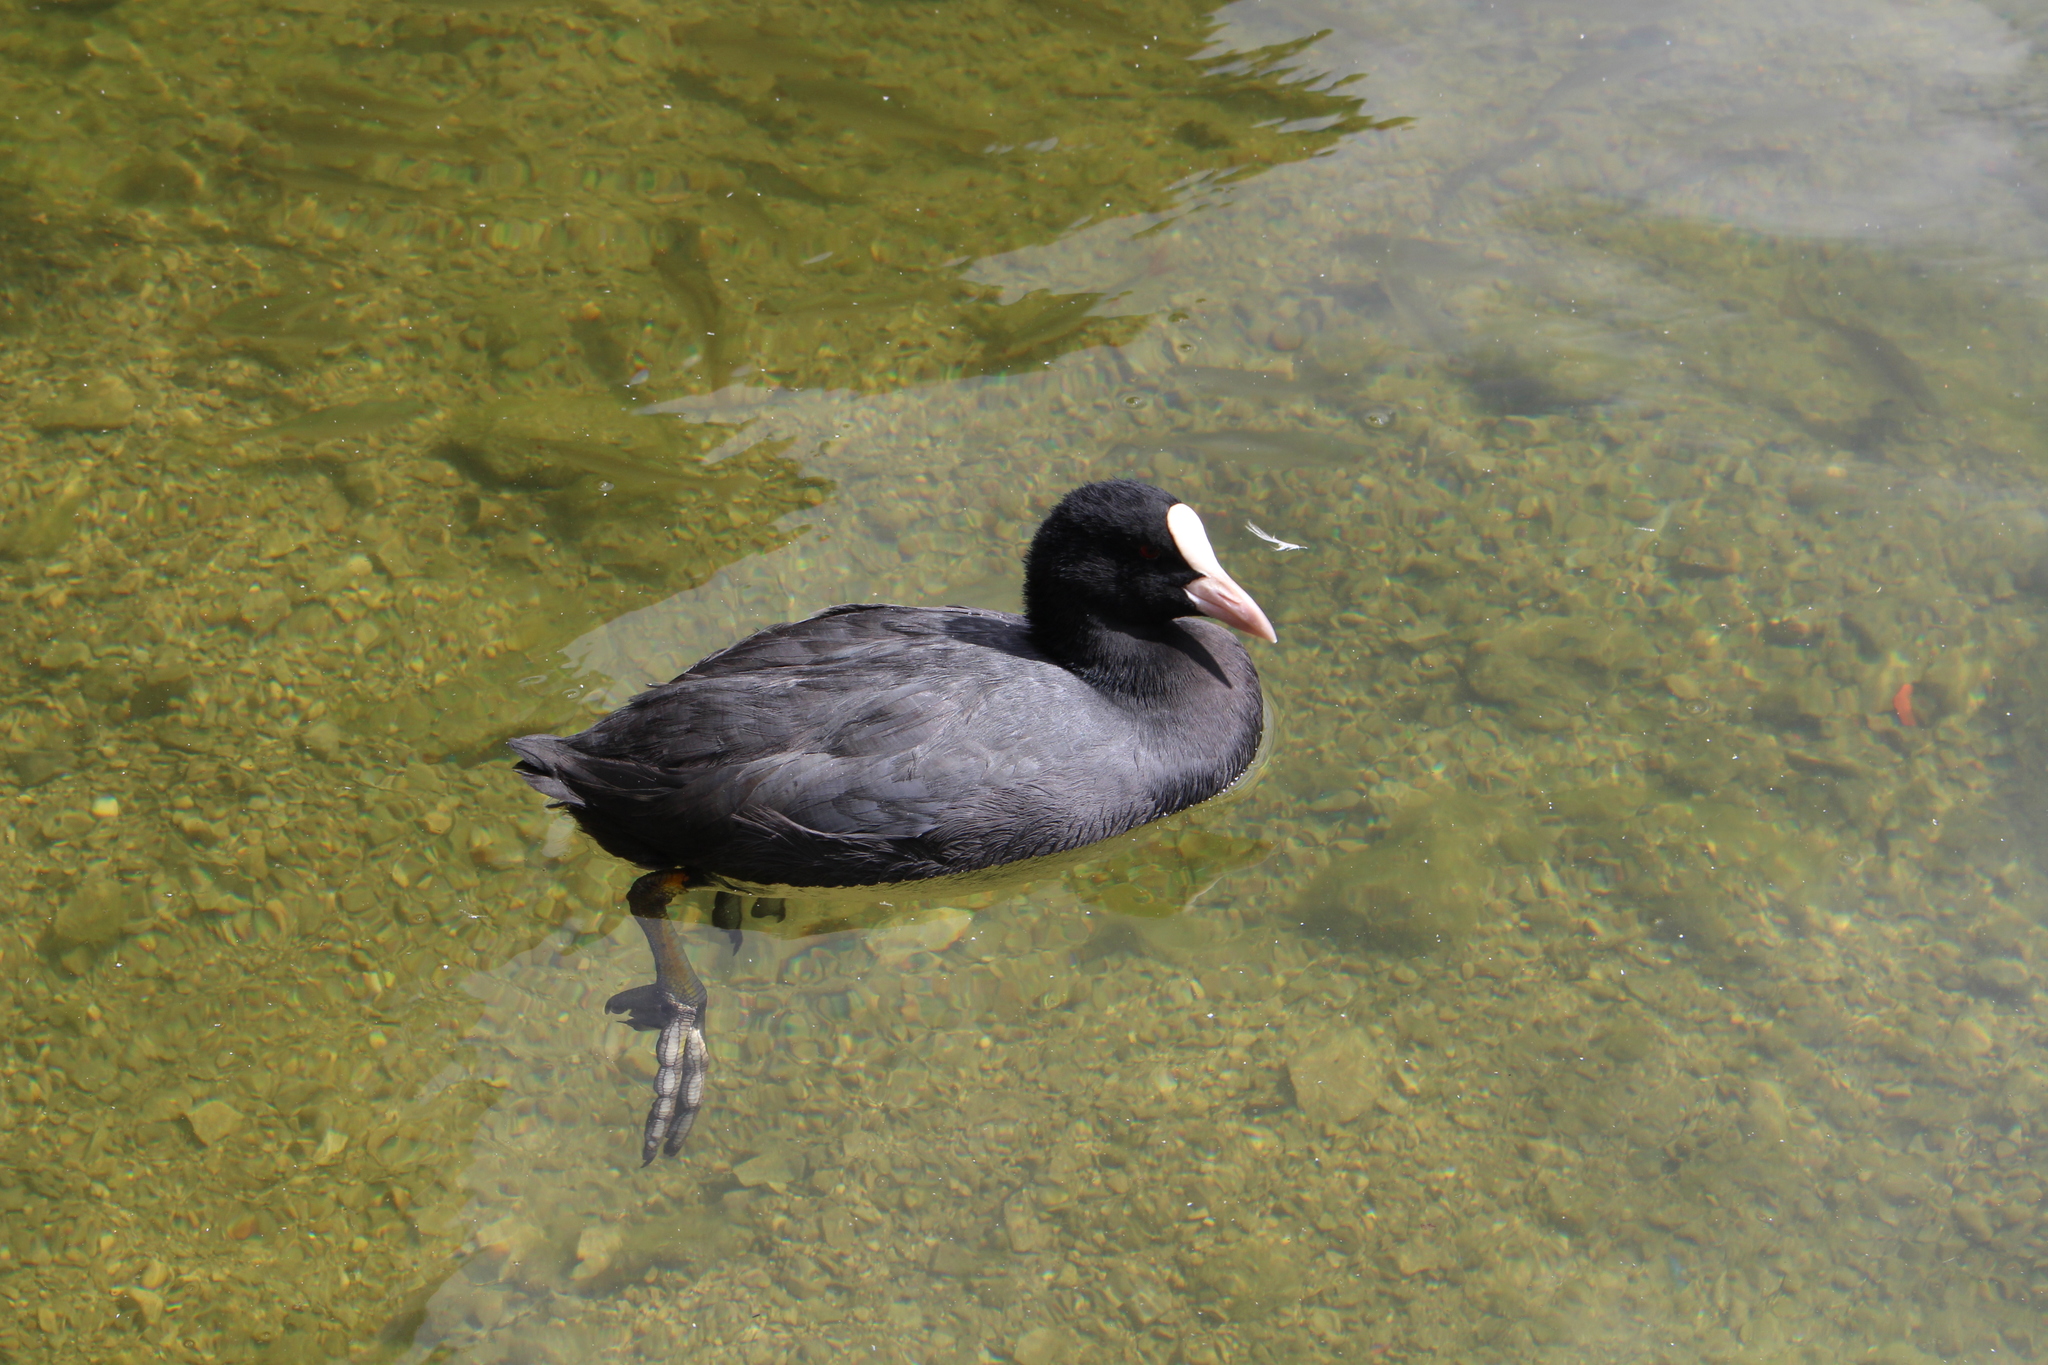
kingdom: Animalia
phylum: Chordata
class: Aves
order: Gruiformes
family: Rallidae
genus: Fulica
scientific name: Fulica atra
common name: Eurasian coot
